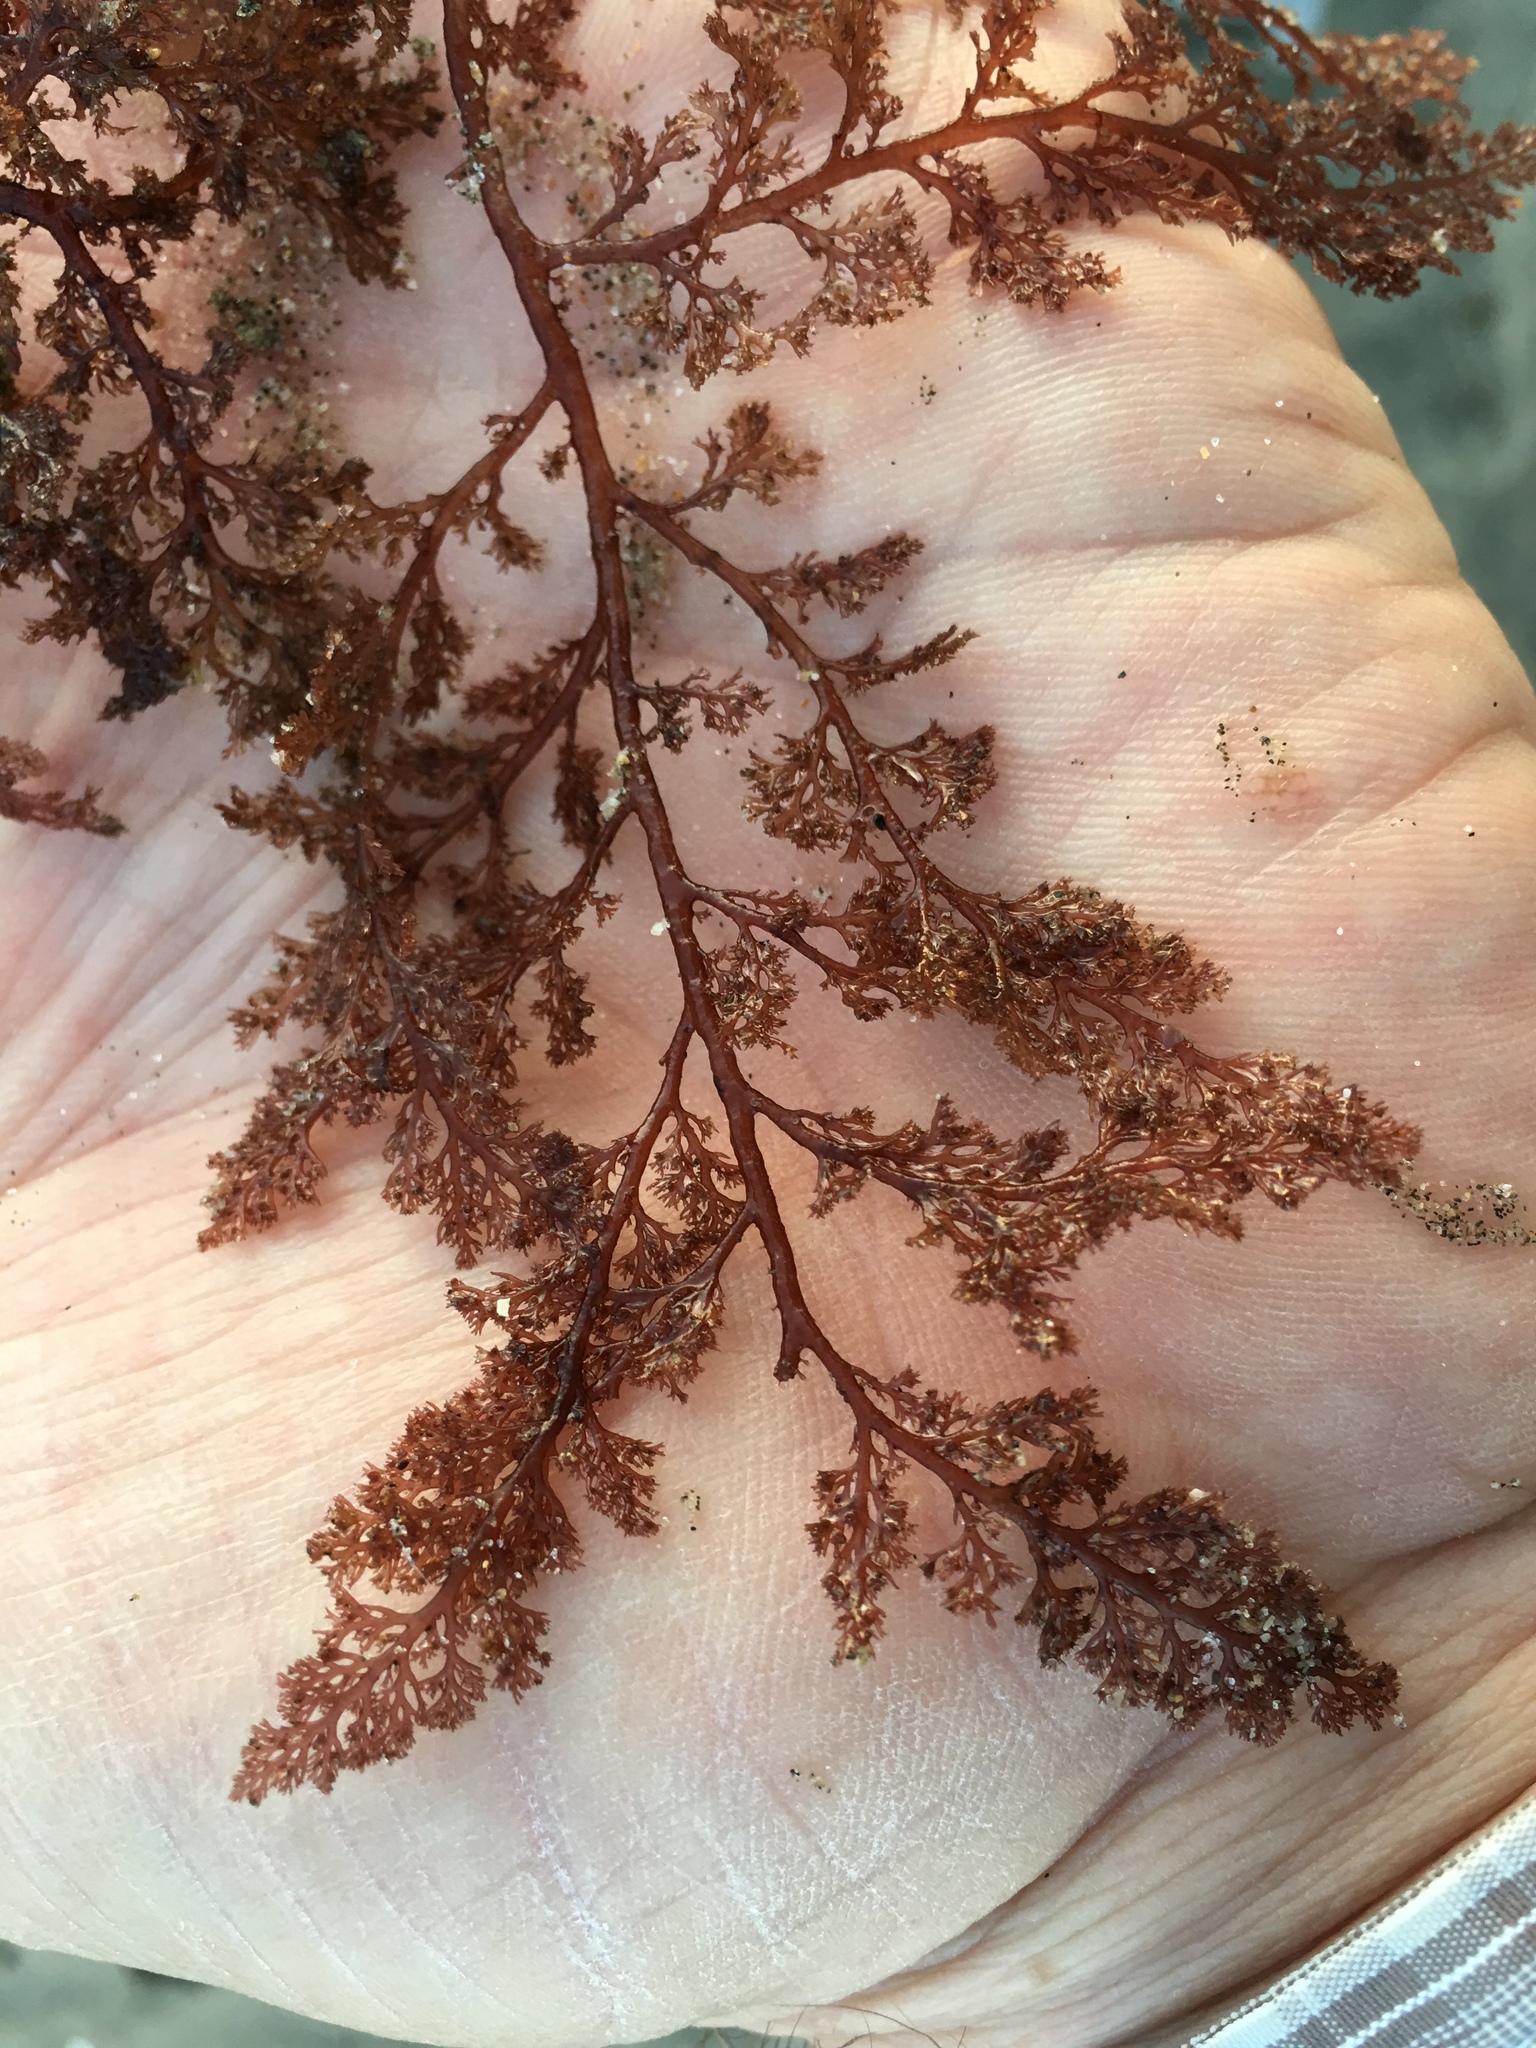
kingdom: Plantae
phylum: Rhodophyta
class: Florideophyceae
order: Ceramiales
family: Ceramiaceae
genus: Microcladia
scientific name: Microcladia coulteri
